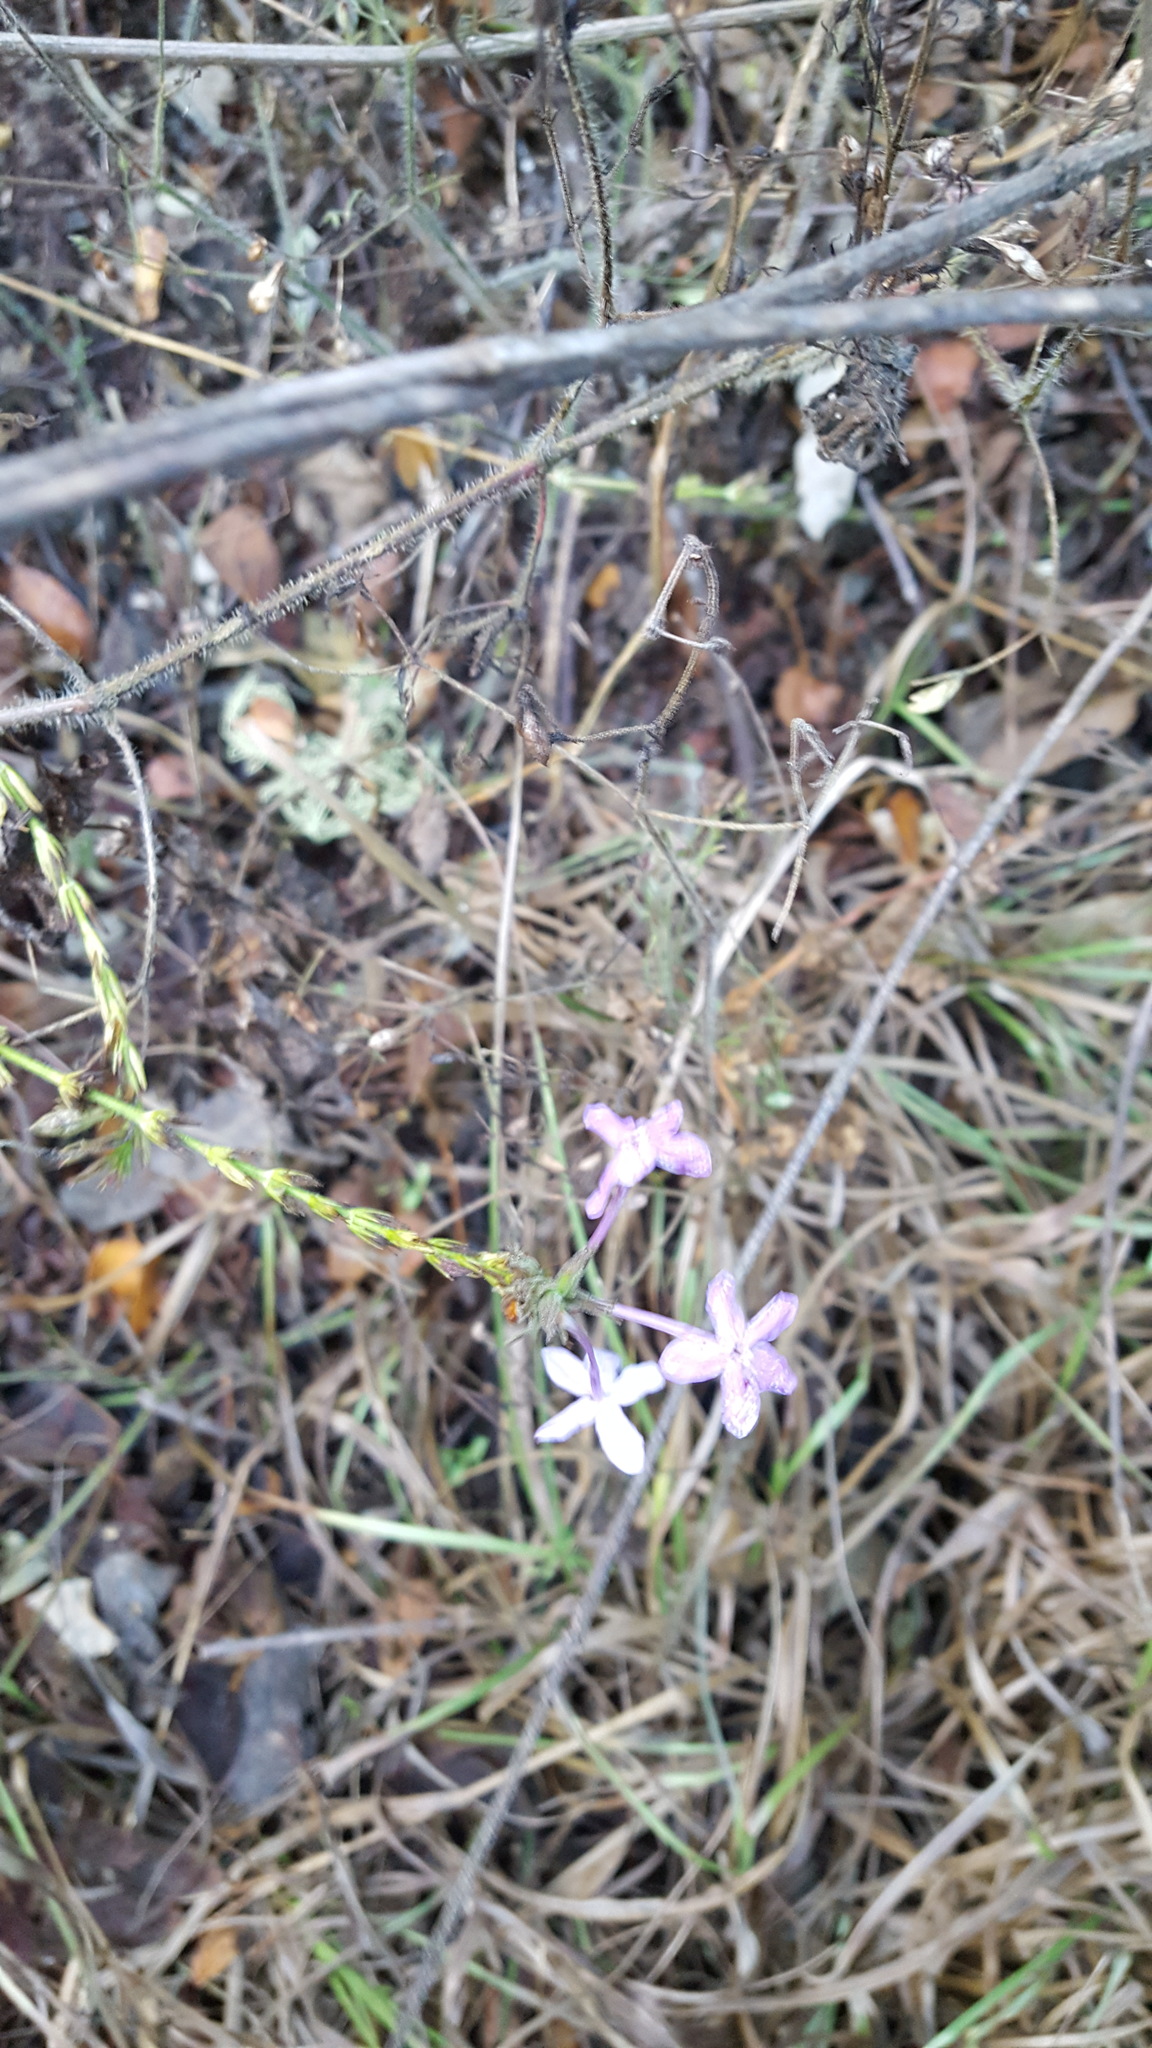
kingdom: Plantae
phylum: Tracheophyta
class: Magnoliopsida
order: Lamiales
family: Acanthaceae
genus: Pseuderanthemum
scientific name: Pseuderanthemum praecox
